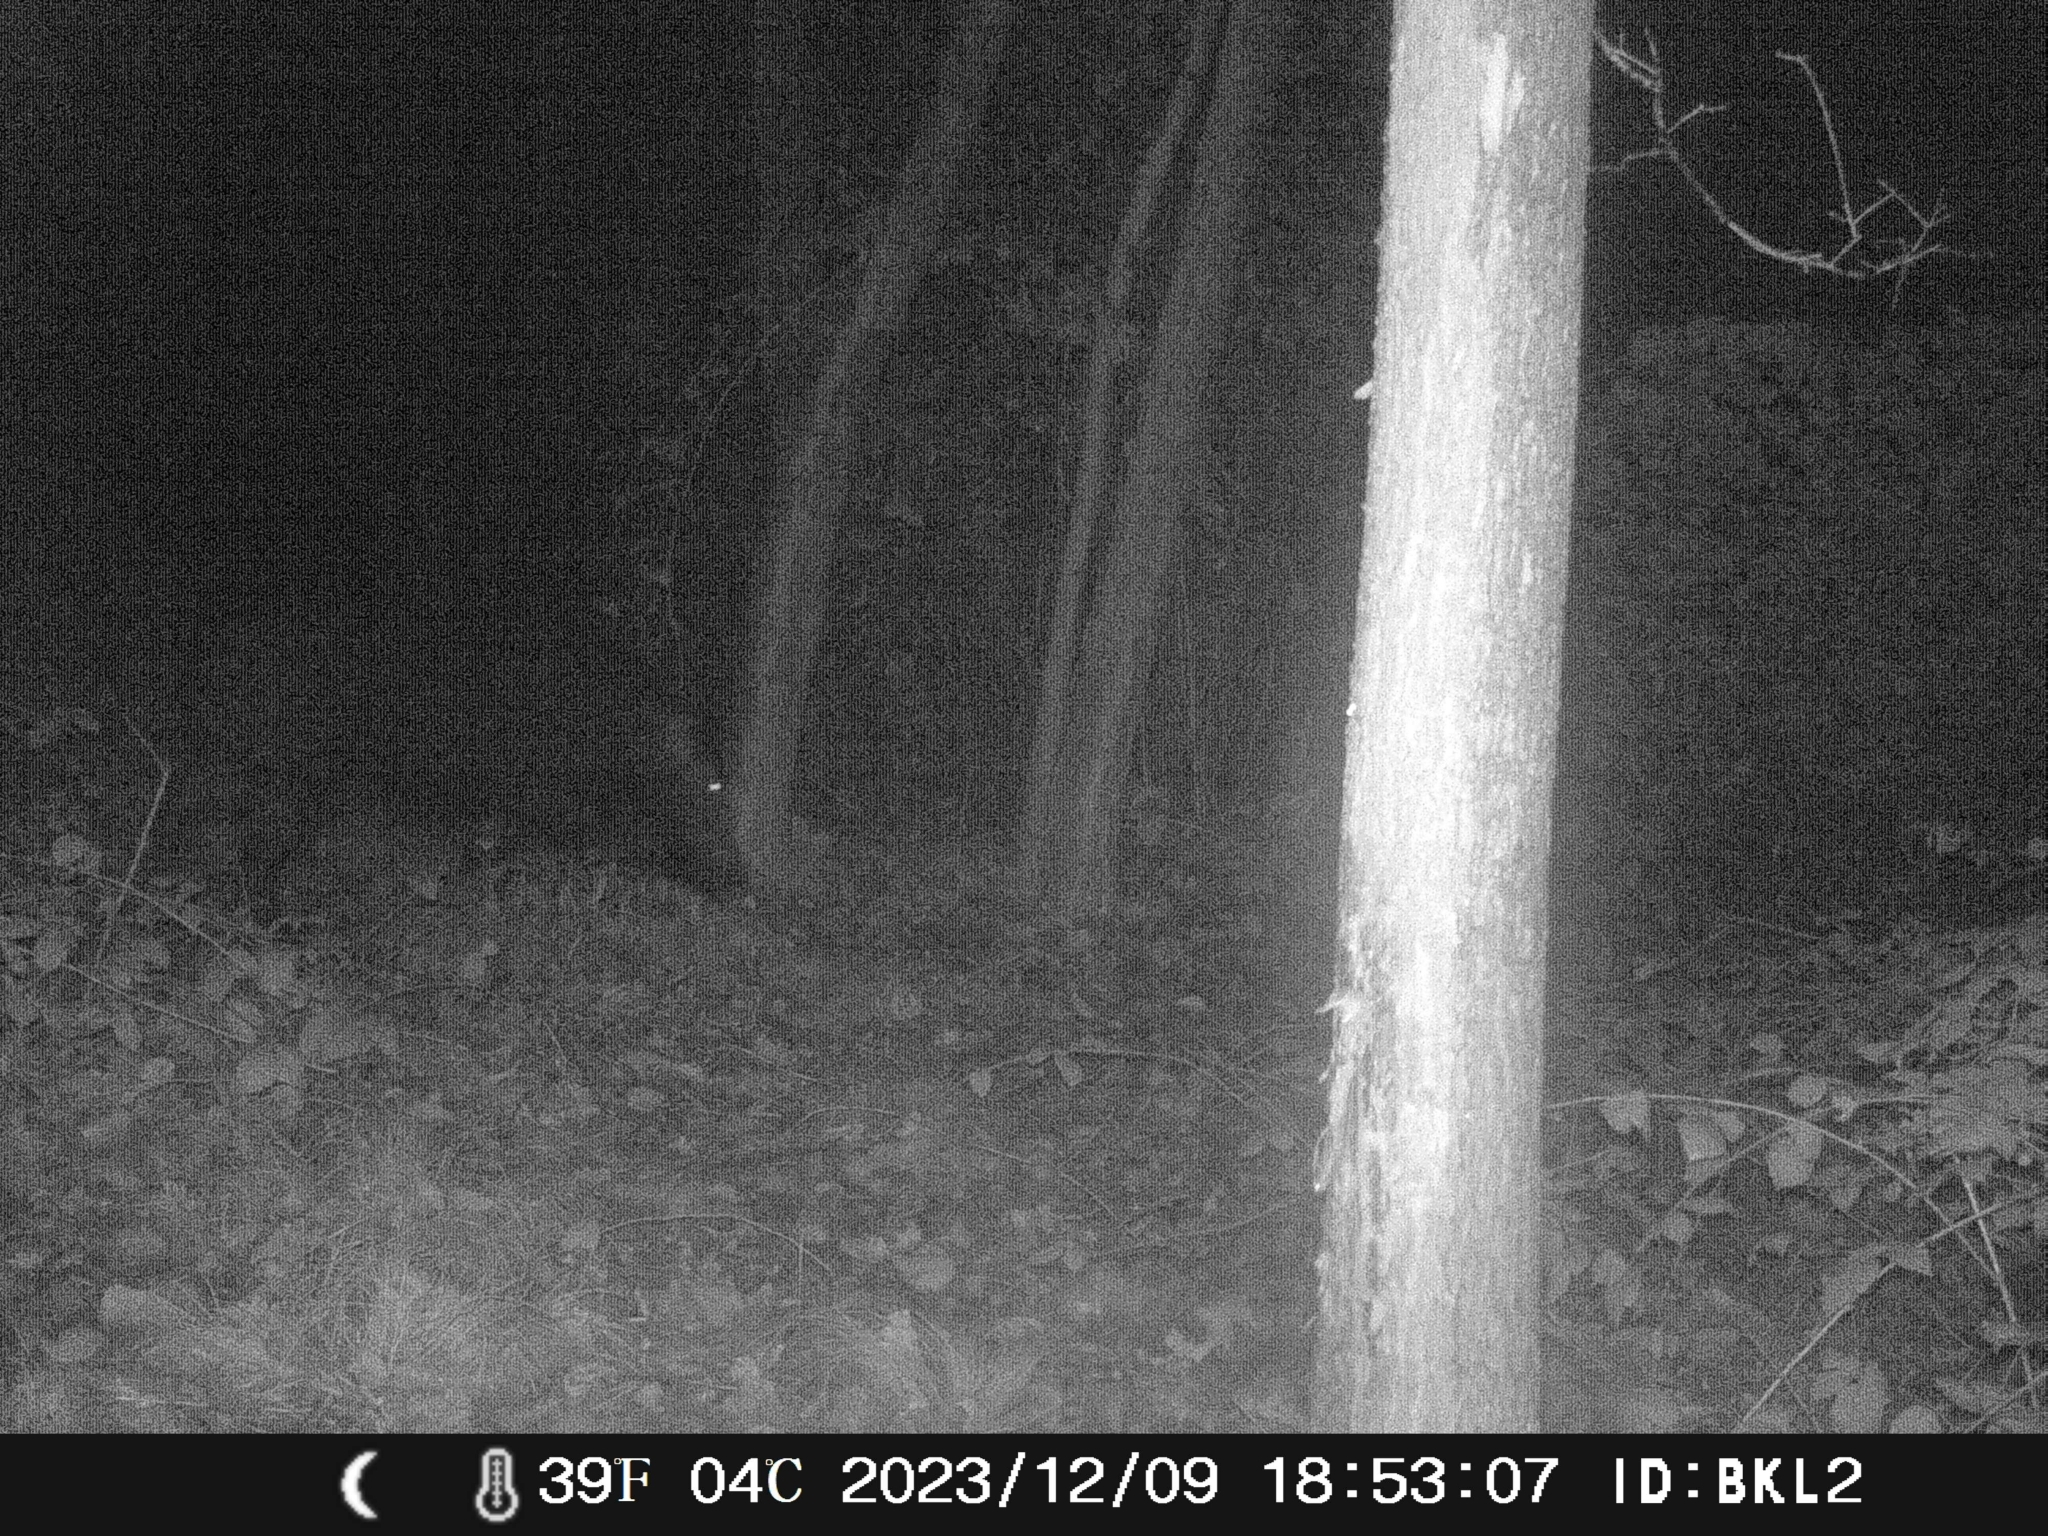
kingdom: Animalia
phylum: Chordata
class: Mammalia
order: Artiodactyla
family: Suidae
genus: Sus
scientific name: Sus scrofa
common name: Wild boar
